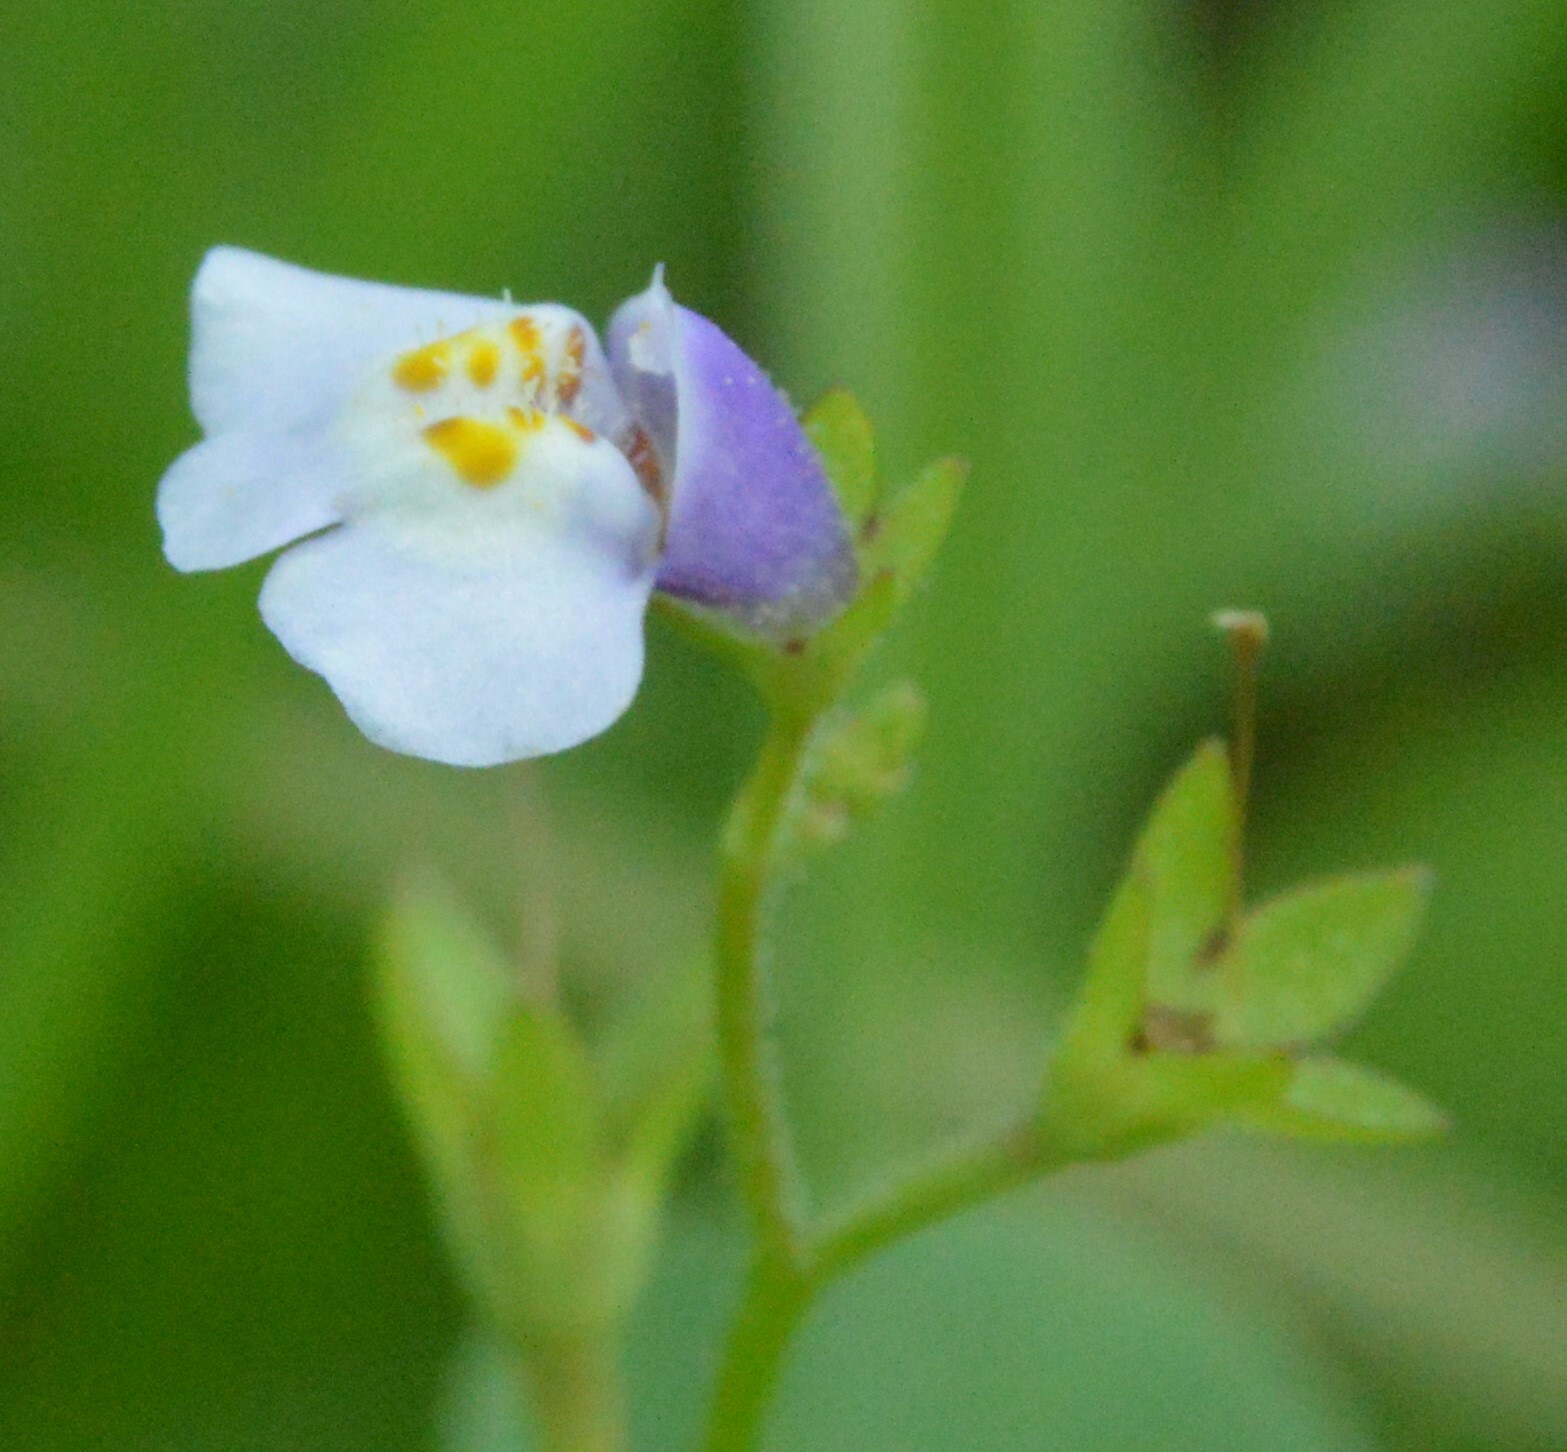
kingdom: Plantae
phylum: Tracheophyta
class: Magnoliopsida
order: Lamiales
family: Mazaceae
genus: Mazus
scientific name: Mazus pumilus
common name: Japanese mazus
